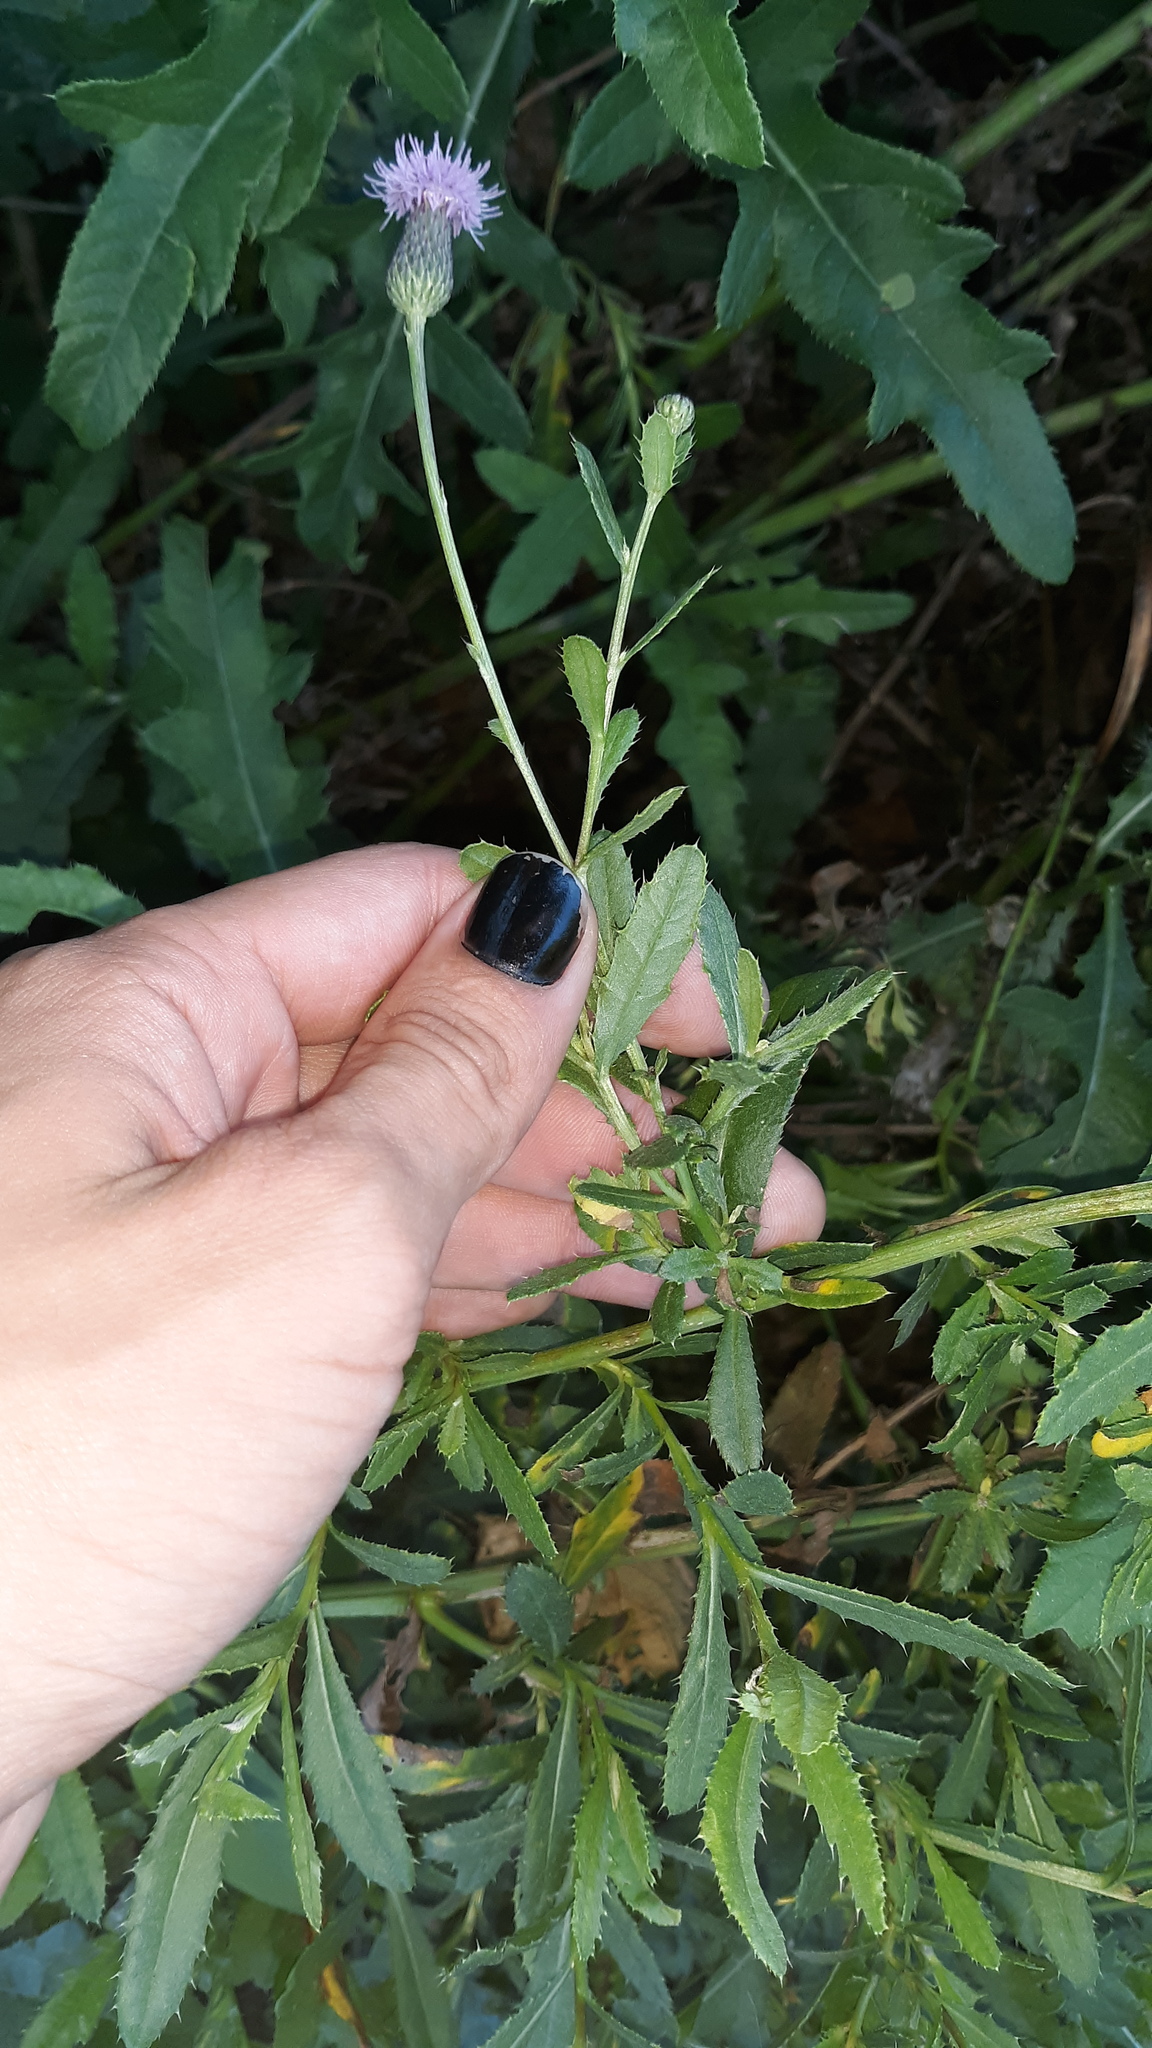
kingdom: Plantae
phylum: Tracheophyta
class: Magnoliopsida
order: Asterales
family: Asteraceae
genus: Cirsium
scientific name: Cirsium arvense
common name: Creeping thistle
